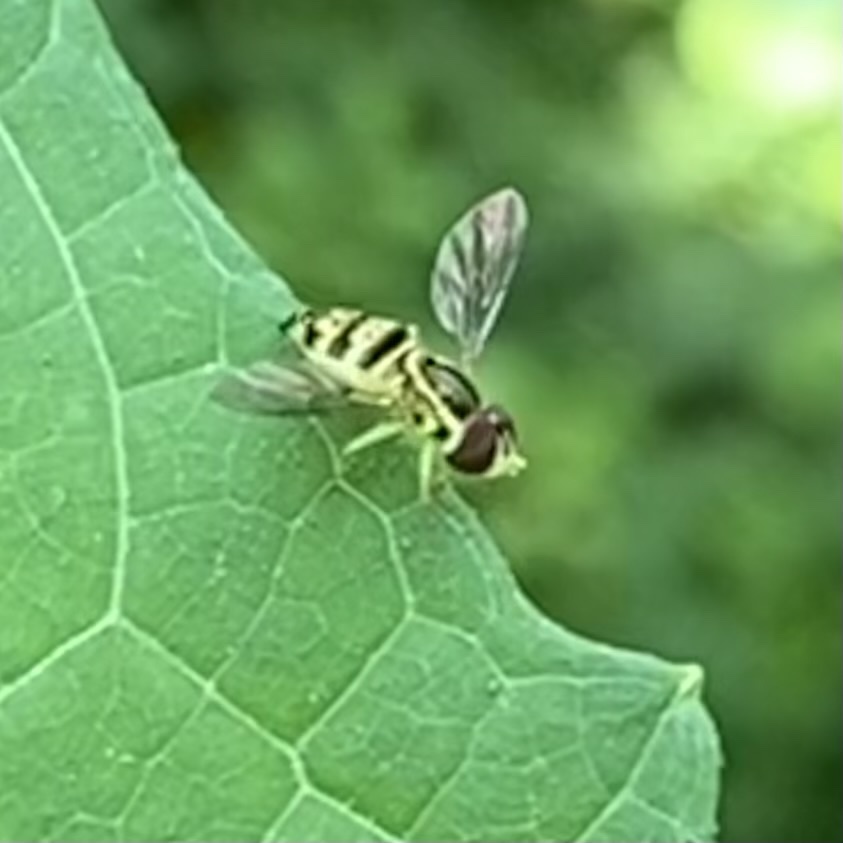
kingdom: Animalia
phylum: Arthropoda
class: Insecta
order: Diptera
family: Syrphidae
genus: Toxomerus
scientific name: Toxomerus geminatus
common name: Eastern calligrapher
